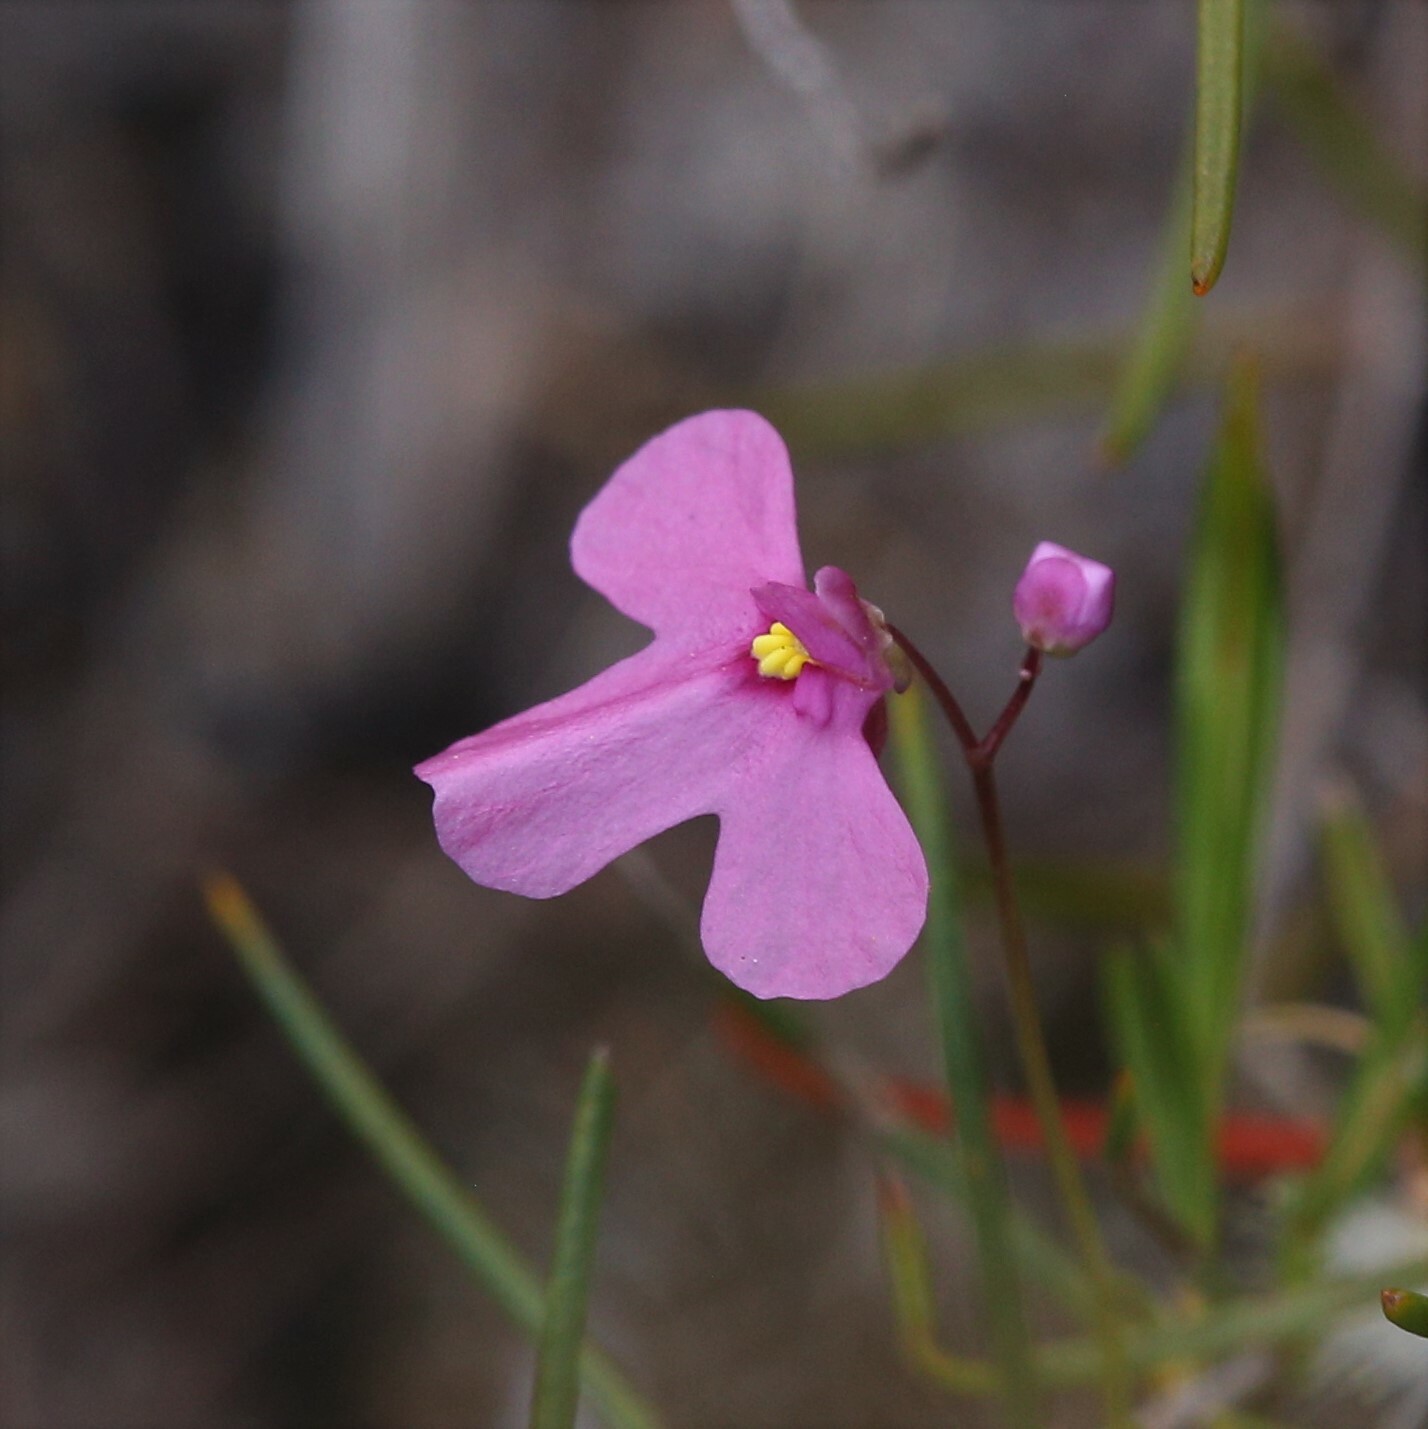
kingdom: Plantae
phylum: Tracheophyta
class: Magnoliopsida
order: Lamiales
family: Lentibulariaceae
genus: Utricularia
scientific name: Utricularia multifida
